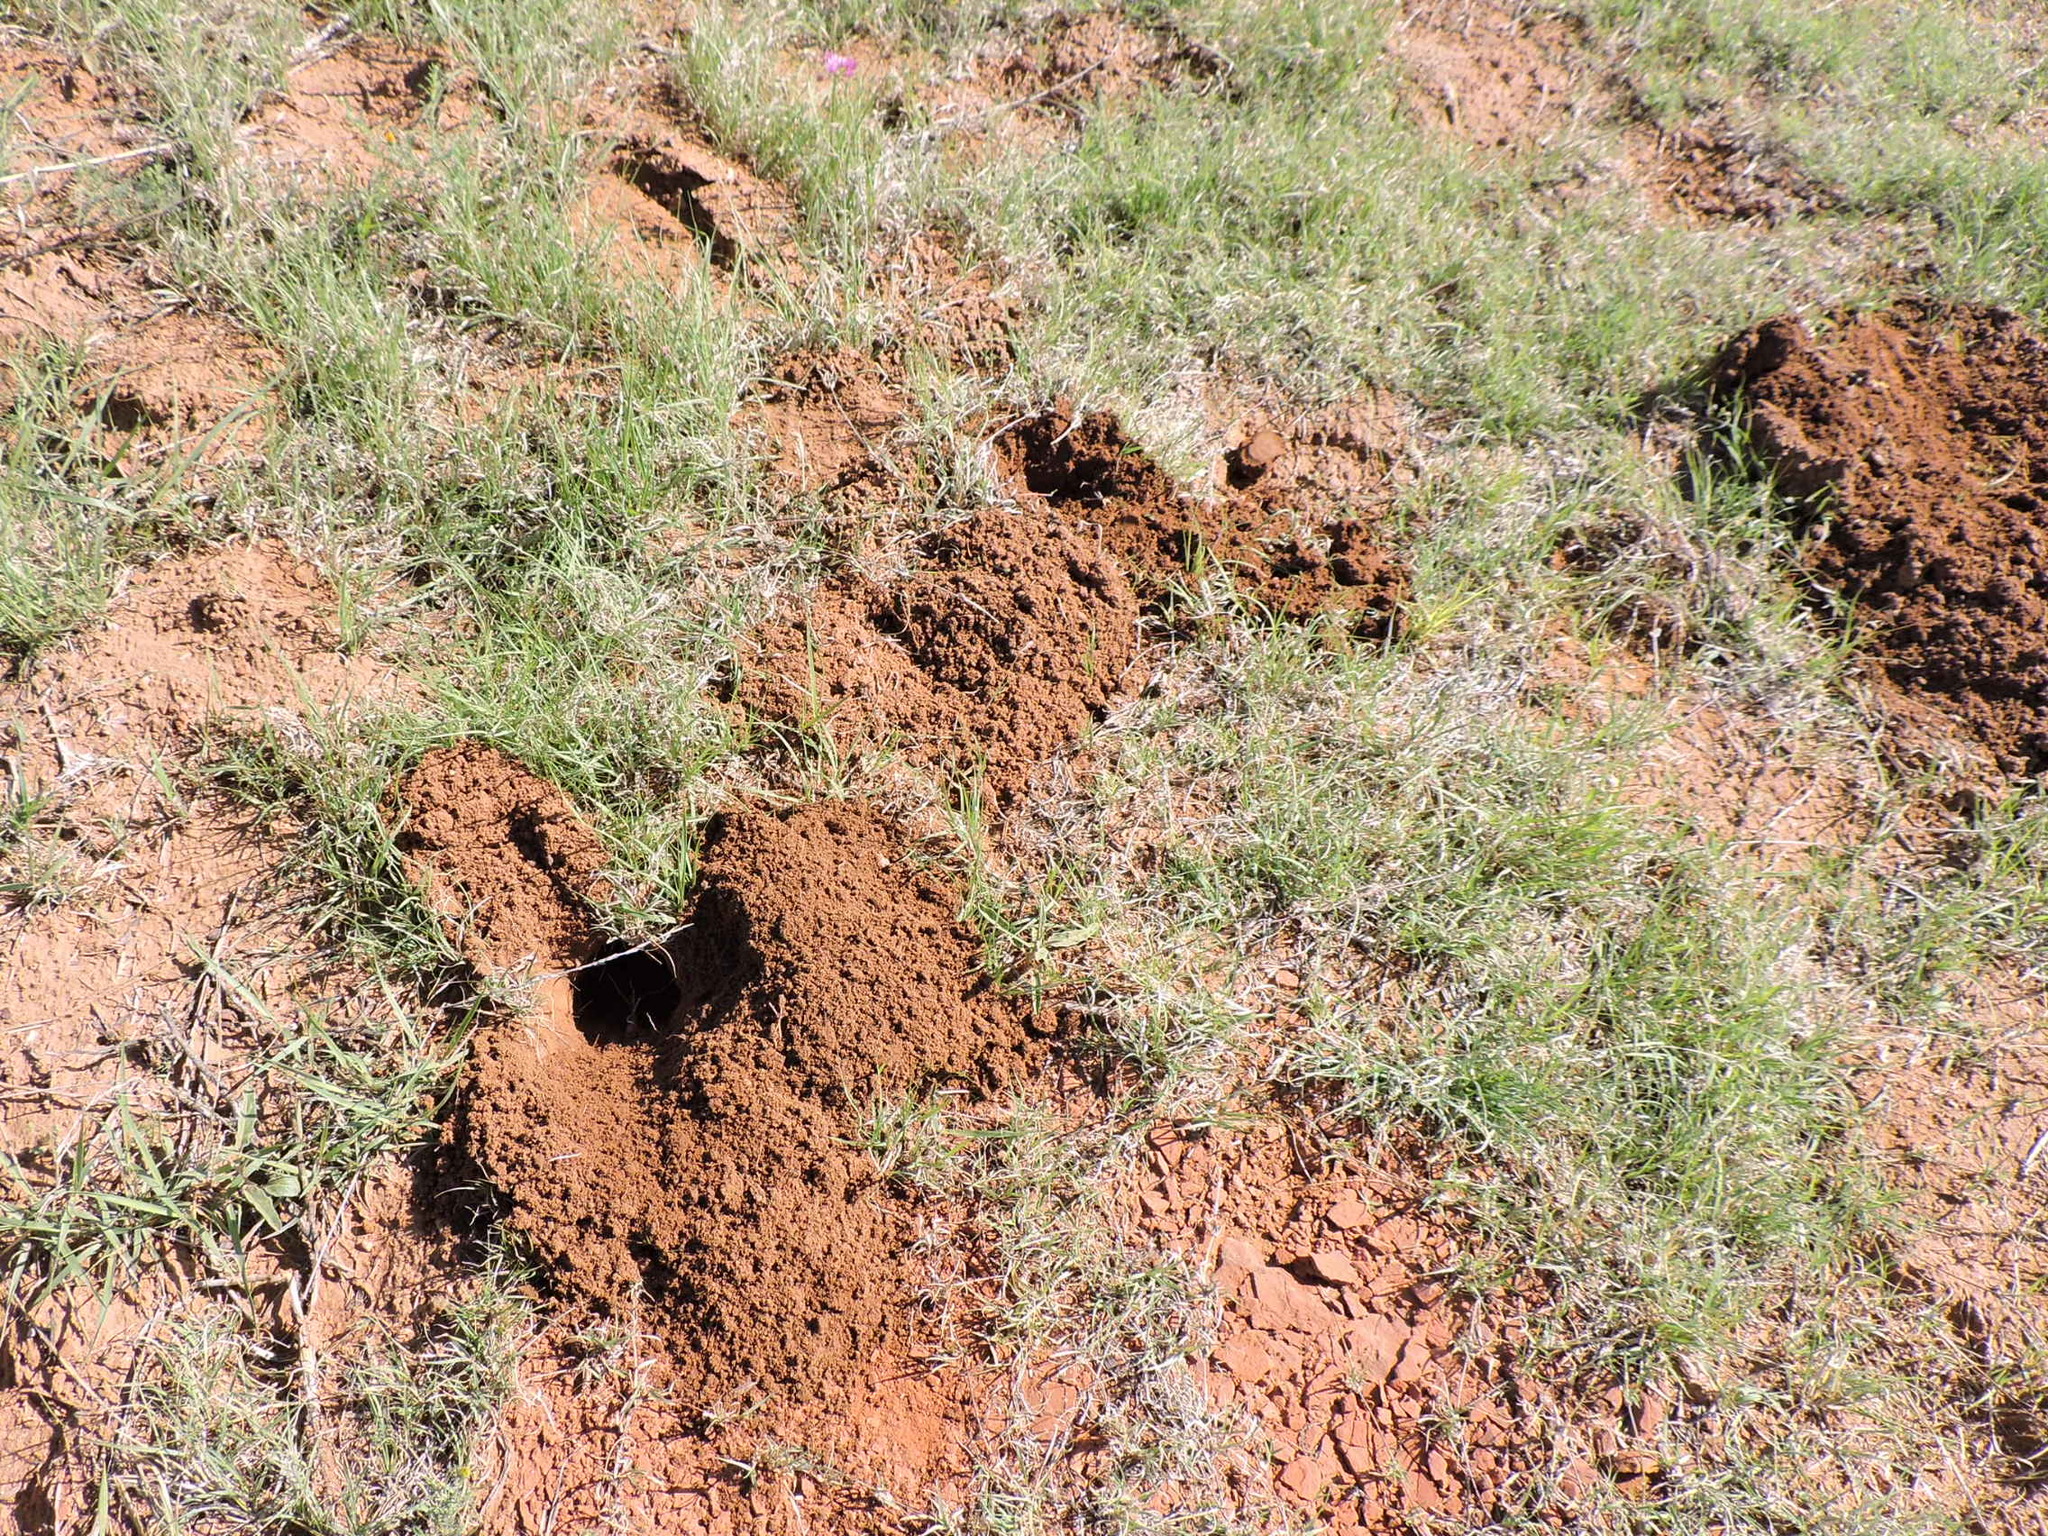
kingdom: Animalia
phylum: Chordata
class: Mammalia
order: Rodentia
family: Geomyidae
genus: Geomys
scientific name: Geomys bursarius
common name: Plains pocket gopher
